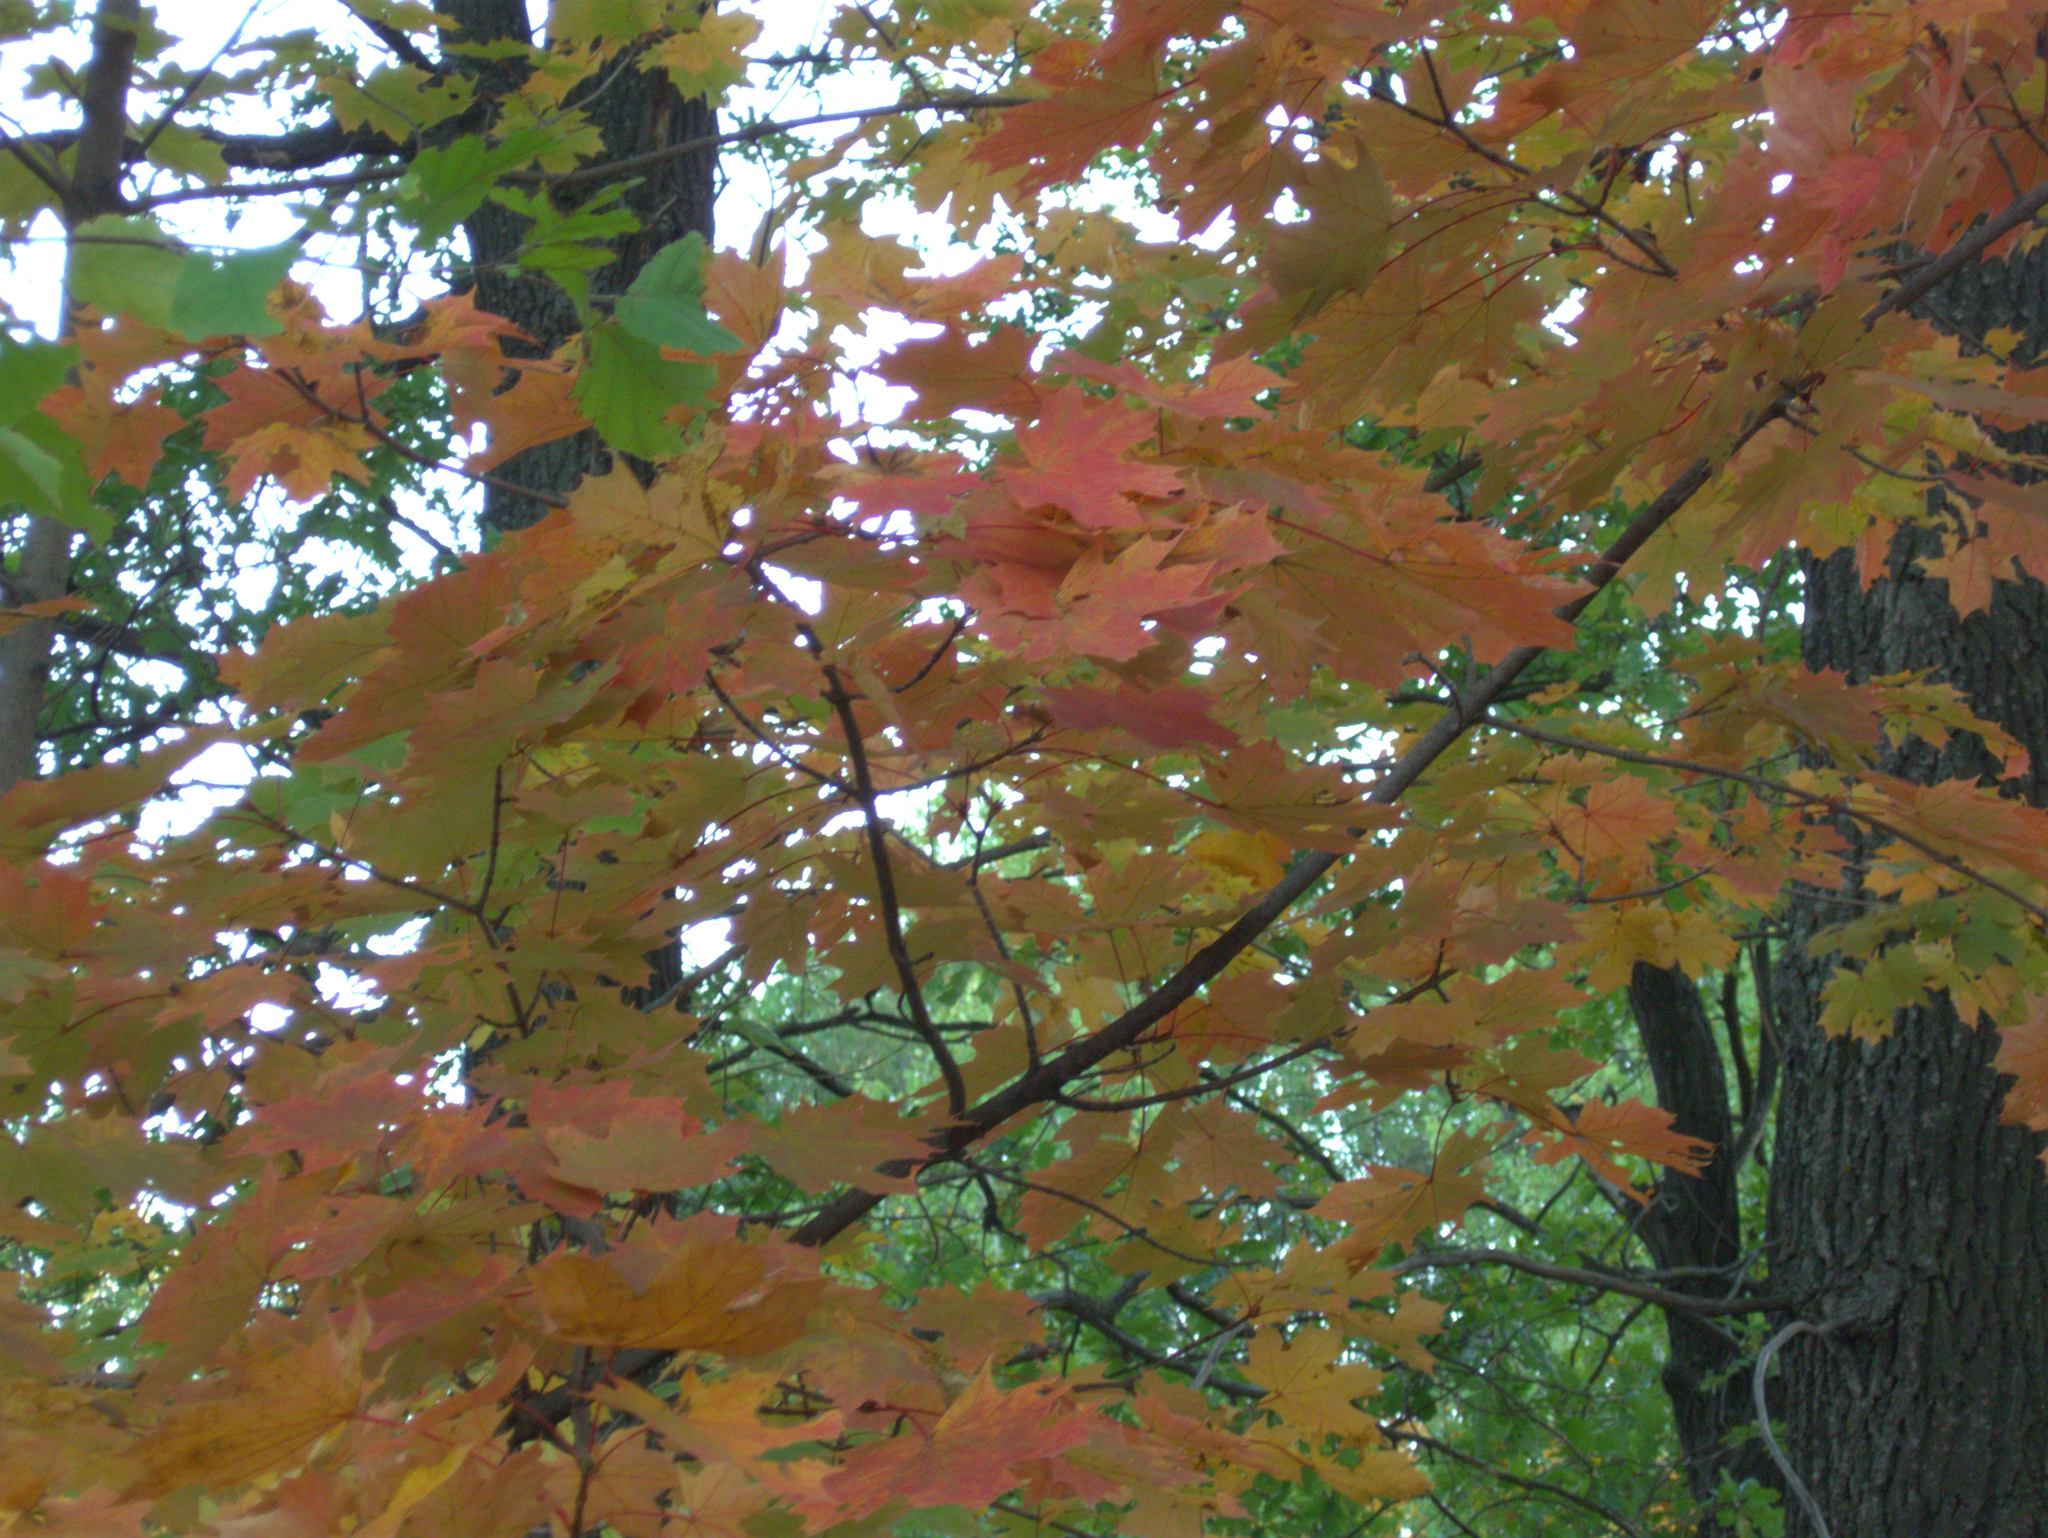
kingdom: Plantae
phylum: Tracheophyta
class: Magnoliopsida
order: Sapindales
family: Sapindaceae
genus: Acer
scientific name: Acer platanoides
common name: Norway maple
